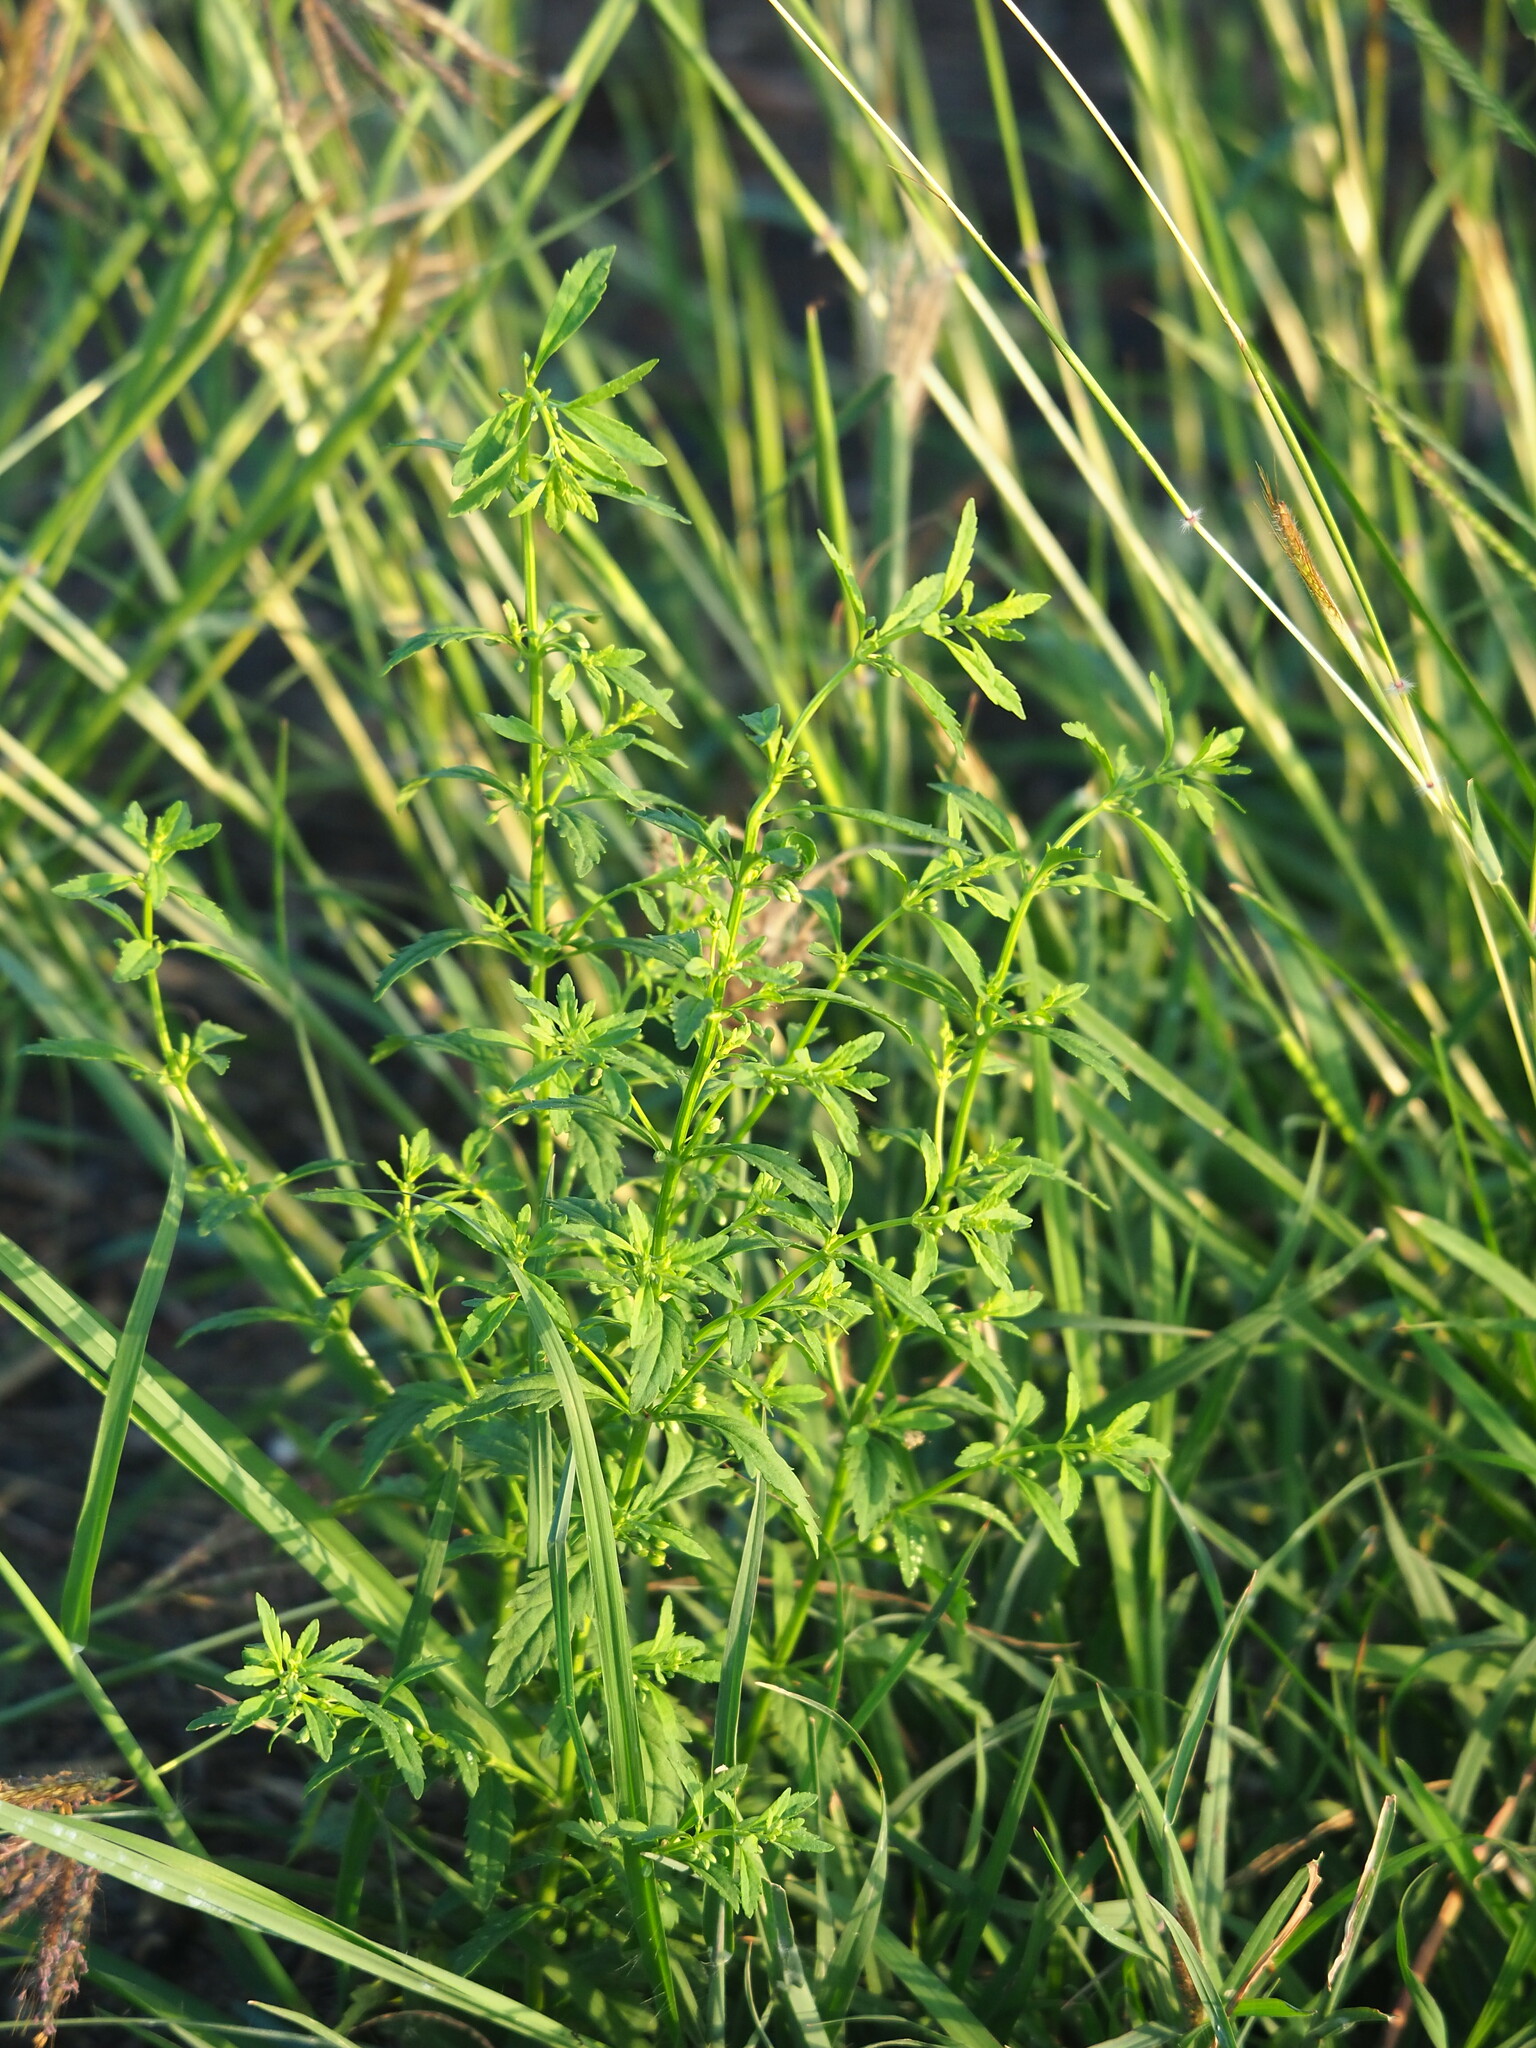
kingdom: Plantae
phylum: Tracheophyta
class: Magnoliopsida
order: Lamiales
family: Plantaginaceae
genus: Scoparia
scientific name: Scoparia dulcis
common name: Scoparia-weed
